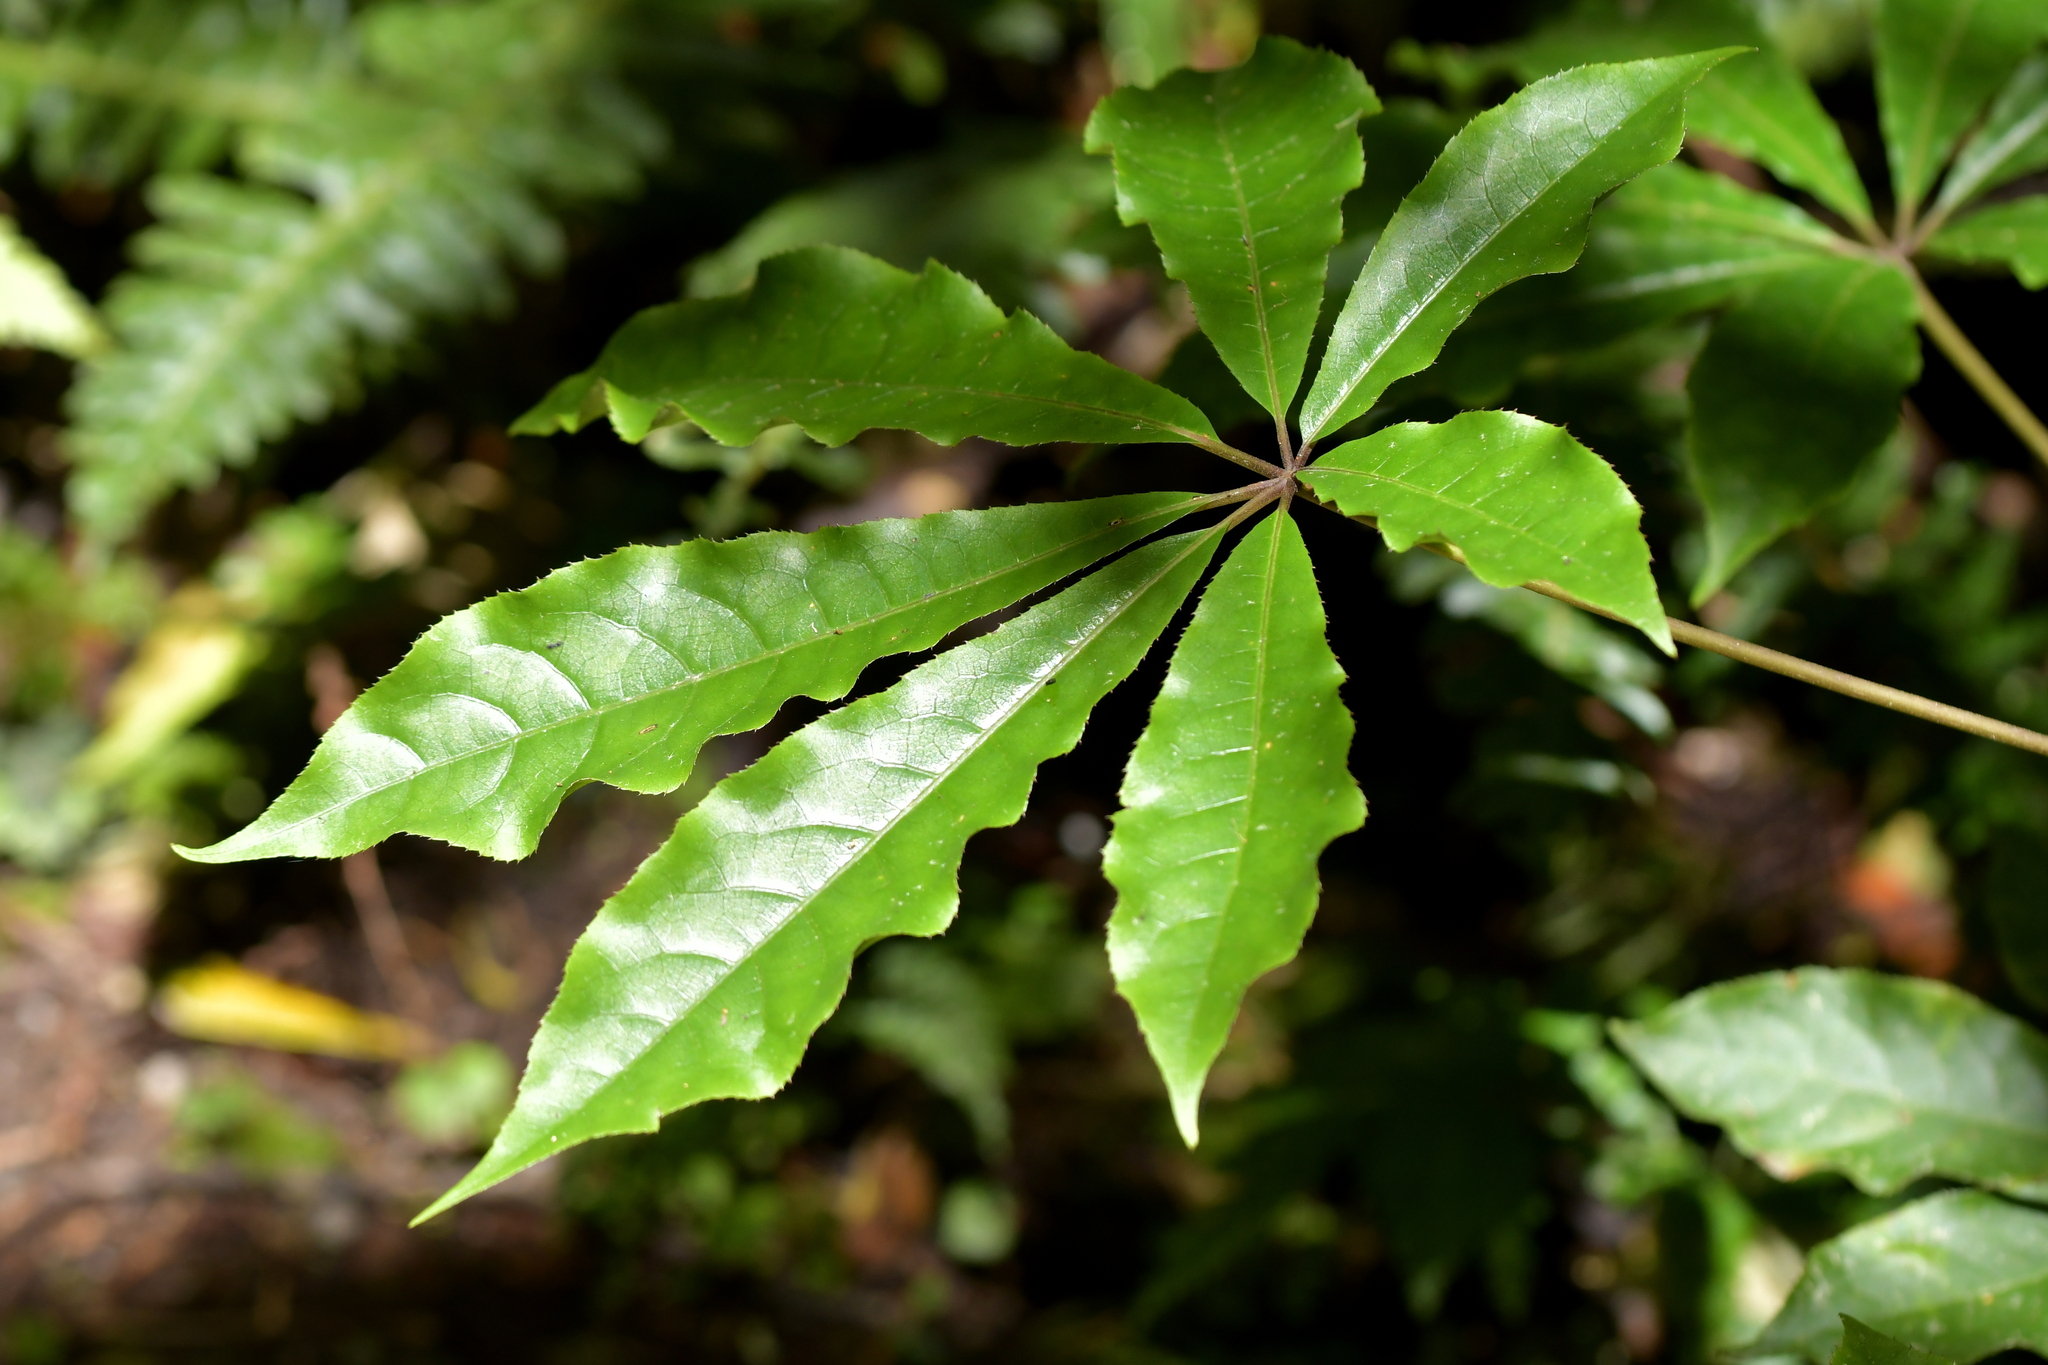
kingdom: Plantae
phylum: Tracheophyta
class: Magnoliopsida
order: Apiales
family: Araliaceae
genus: Schefflera
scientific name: Schefflera digitata
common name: Pate
